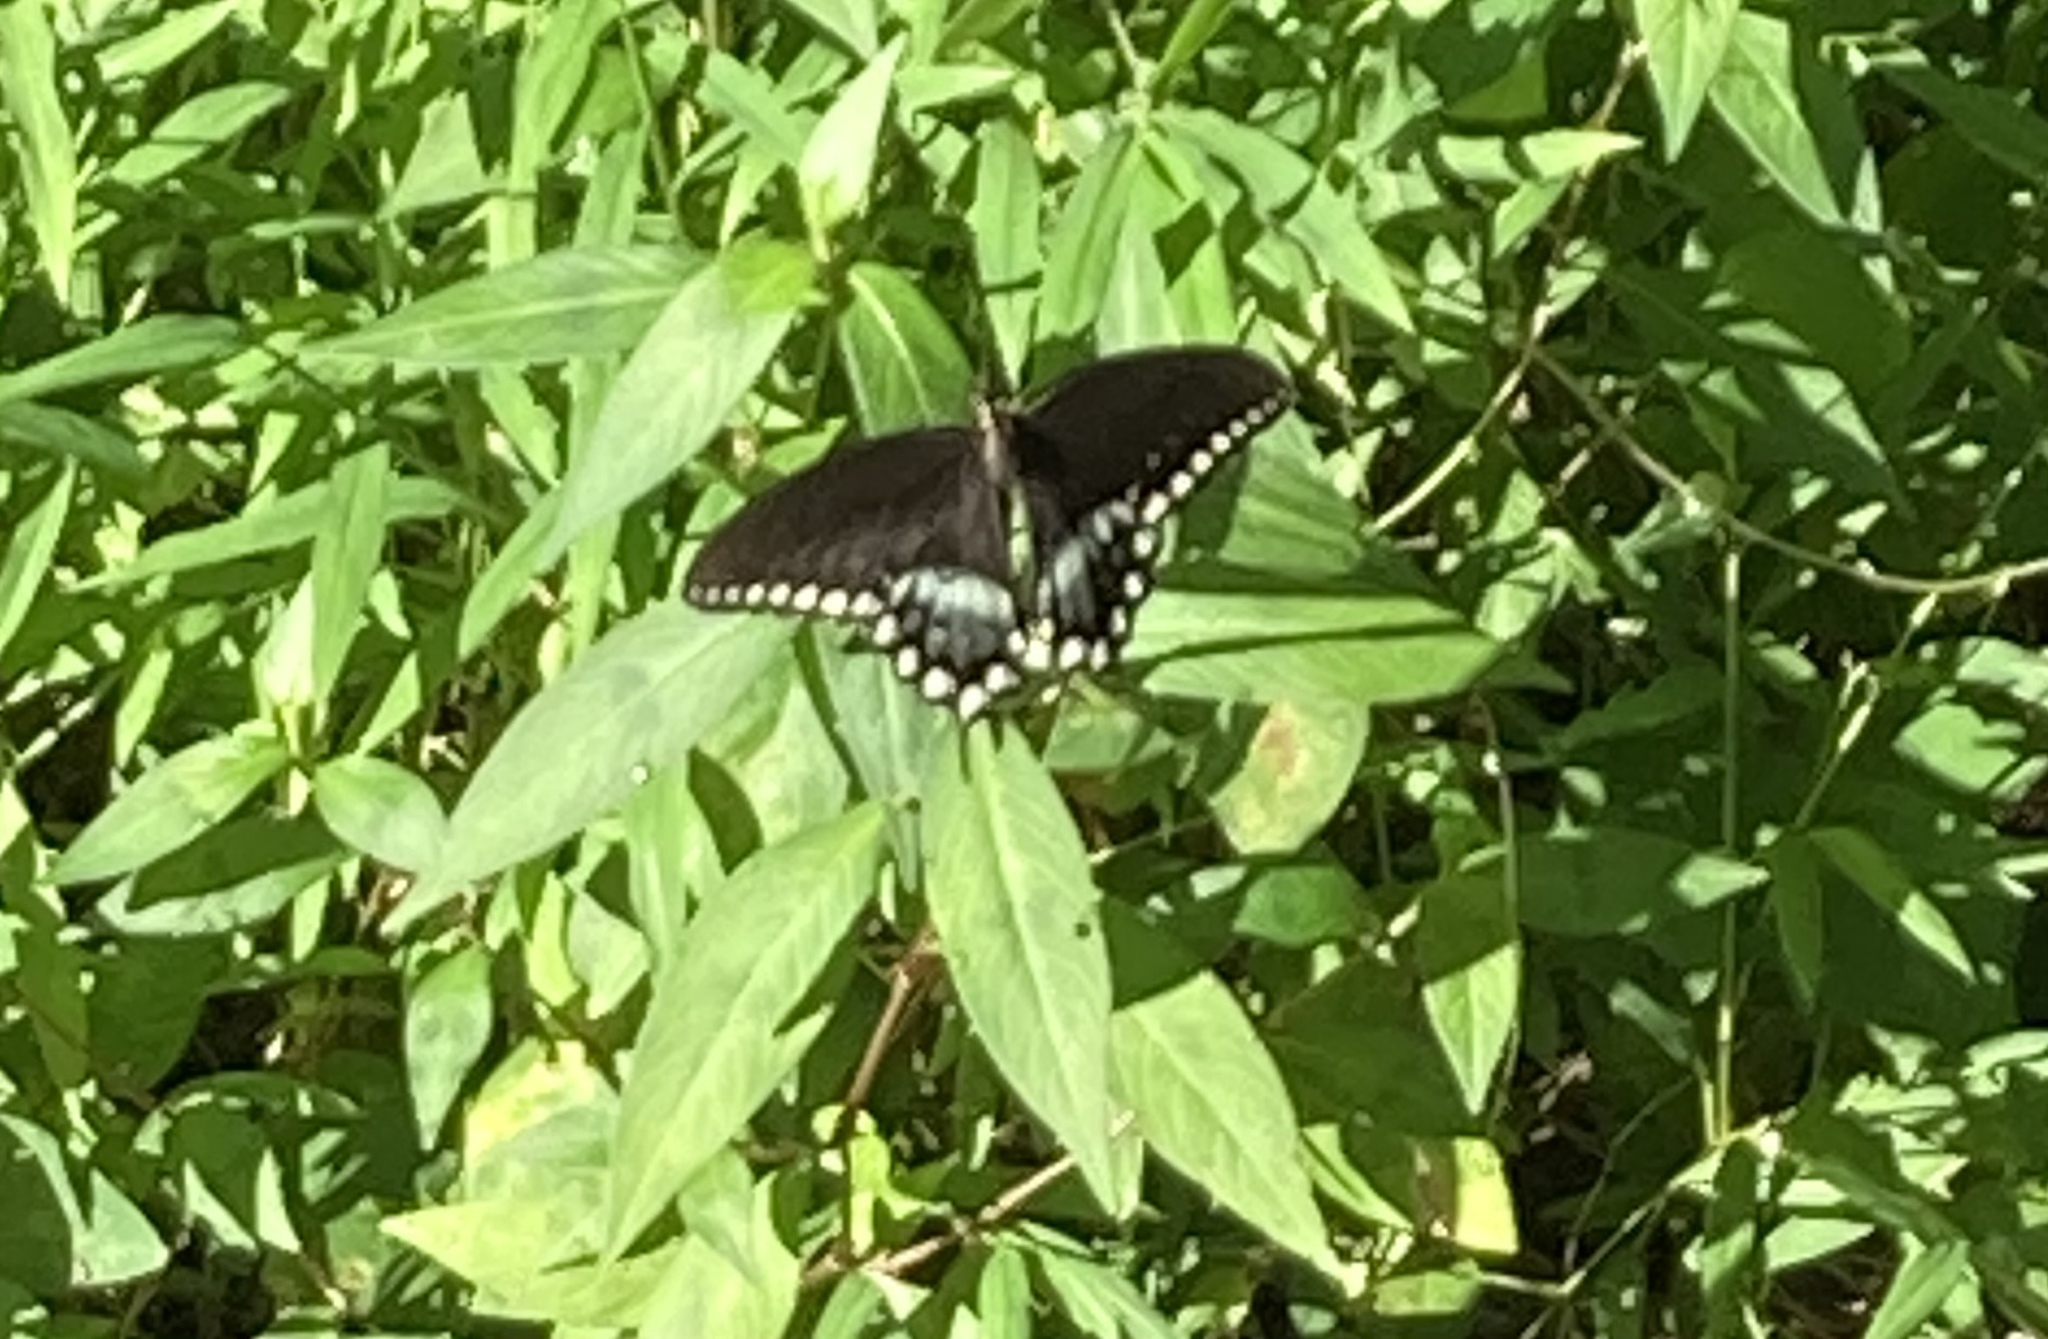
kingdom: Animalia
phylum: Arthropoda
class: Insecta
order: Lepidoptera
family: Papilionidae
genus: Papilio
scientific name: Papilio troilus
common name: Spicebush swallowtail
